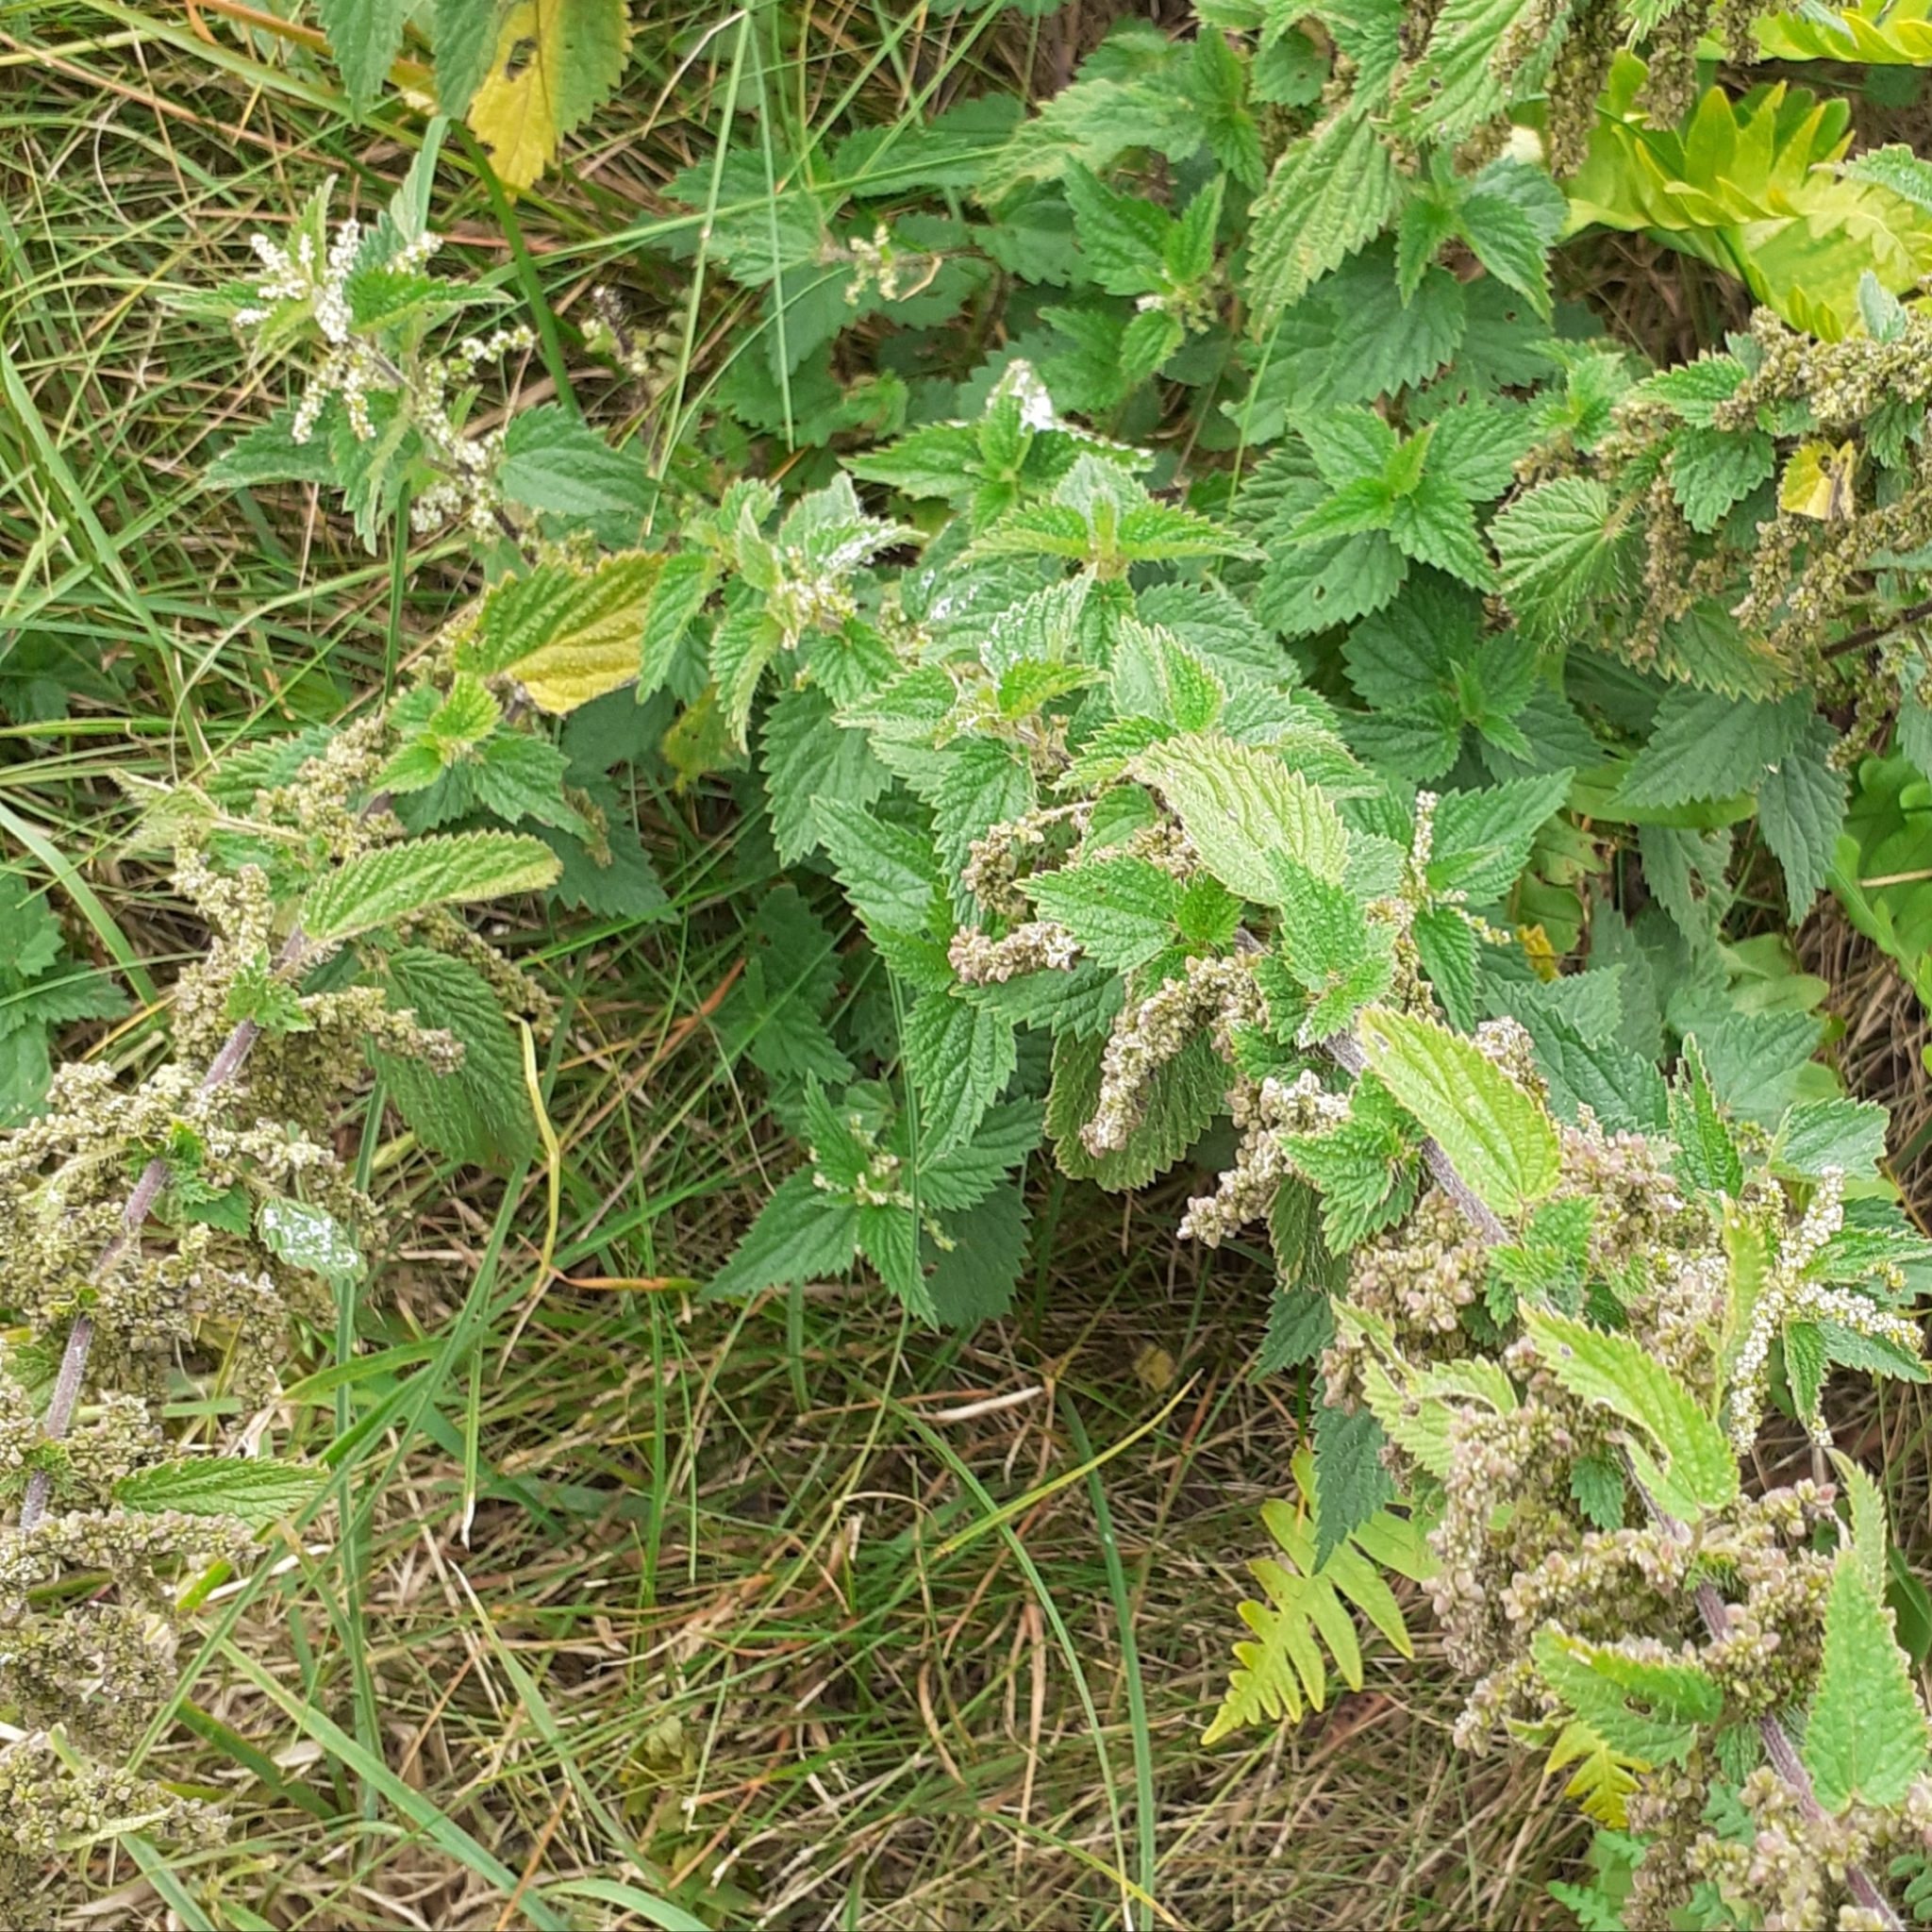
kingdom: Plantae
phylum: Tracheophyta
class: Magnoliopsida
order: Rosales
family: Urticaceae
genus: Urtica
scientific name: Urtica dioica
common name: Common nettle
